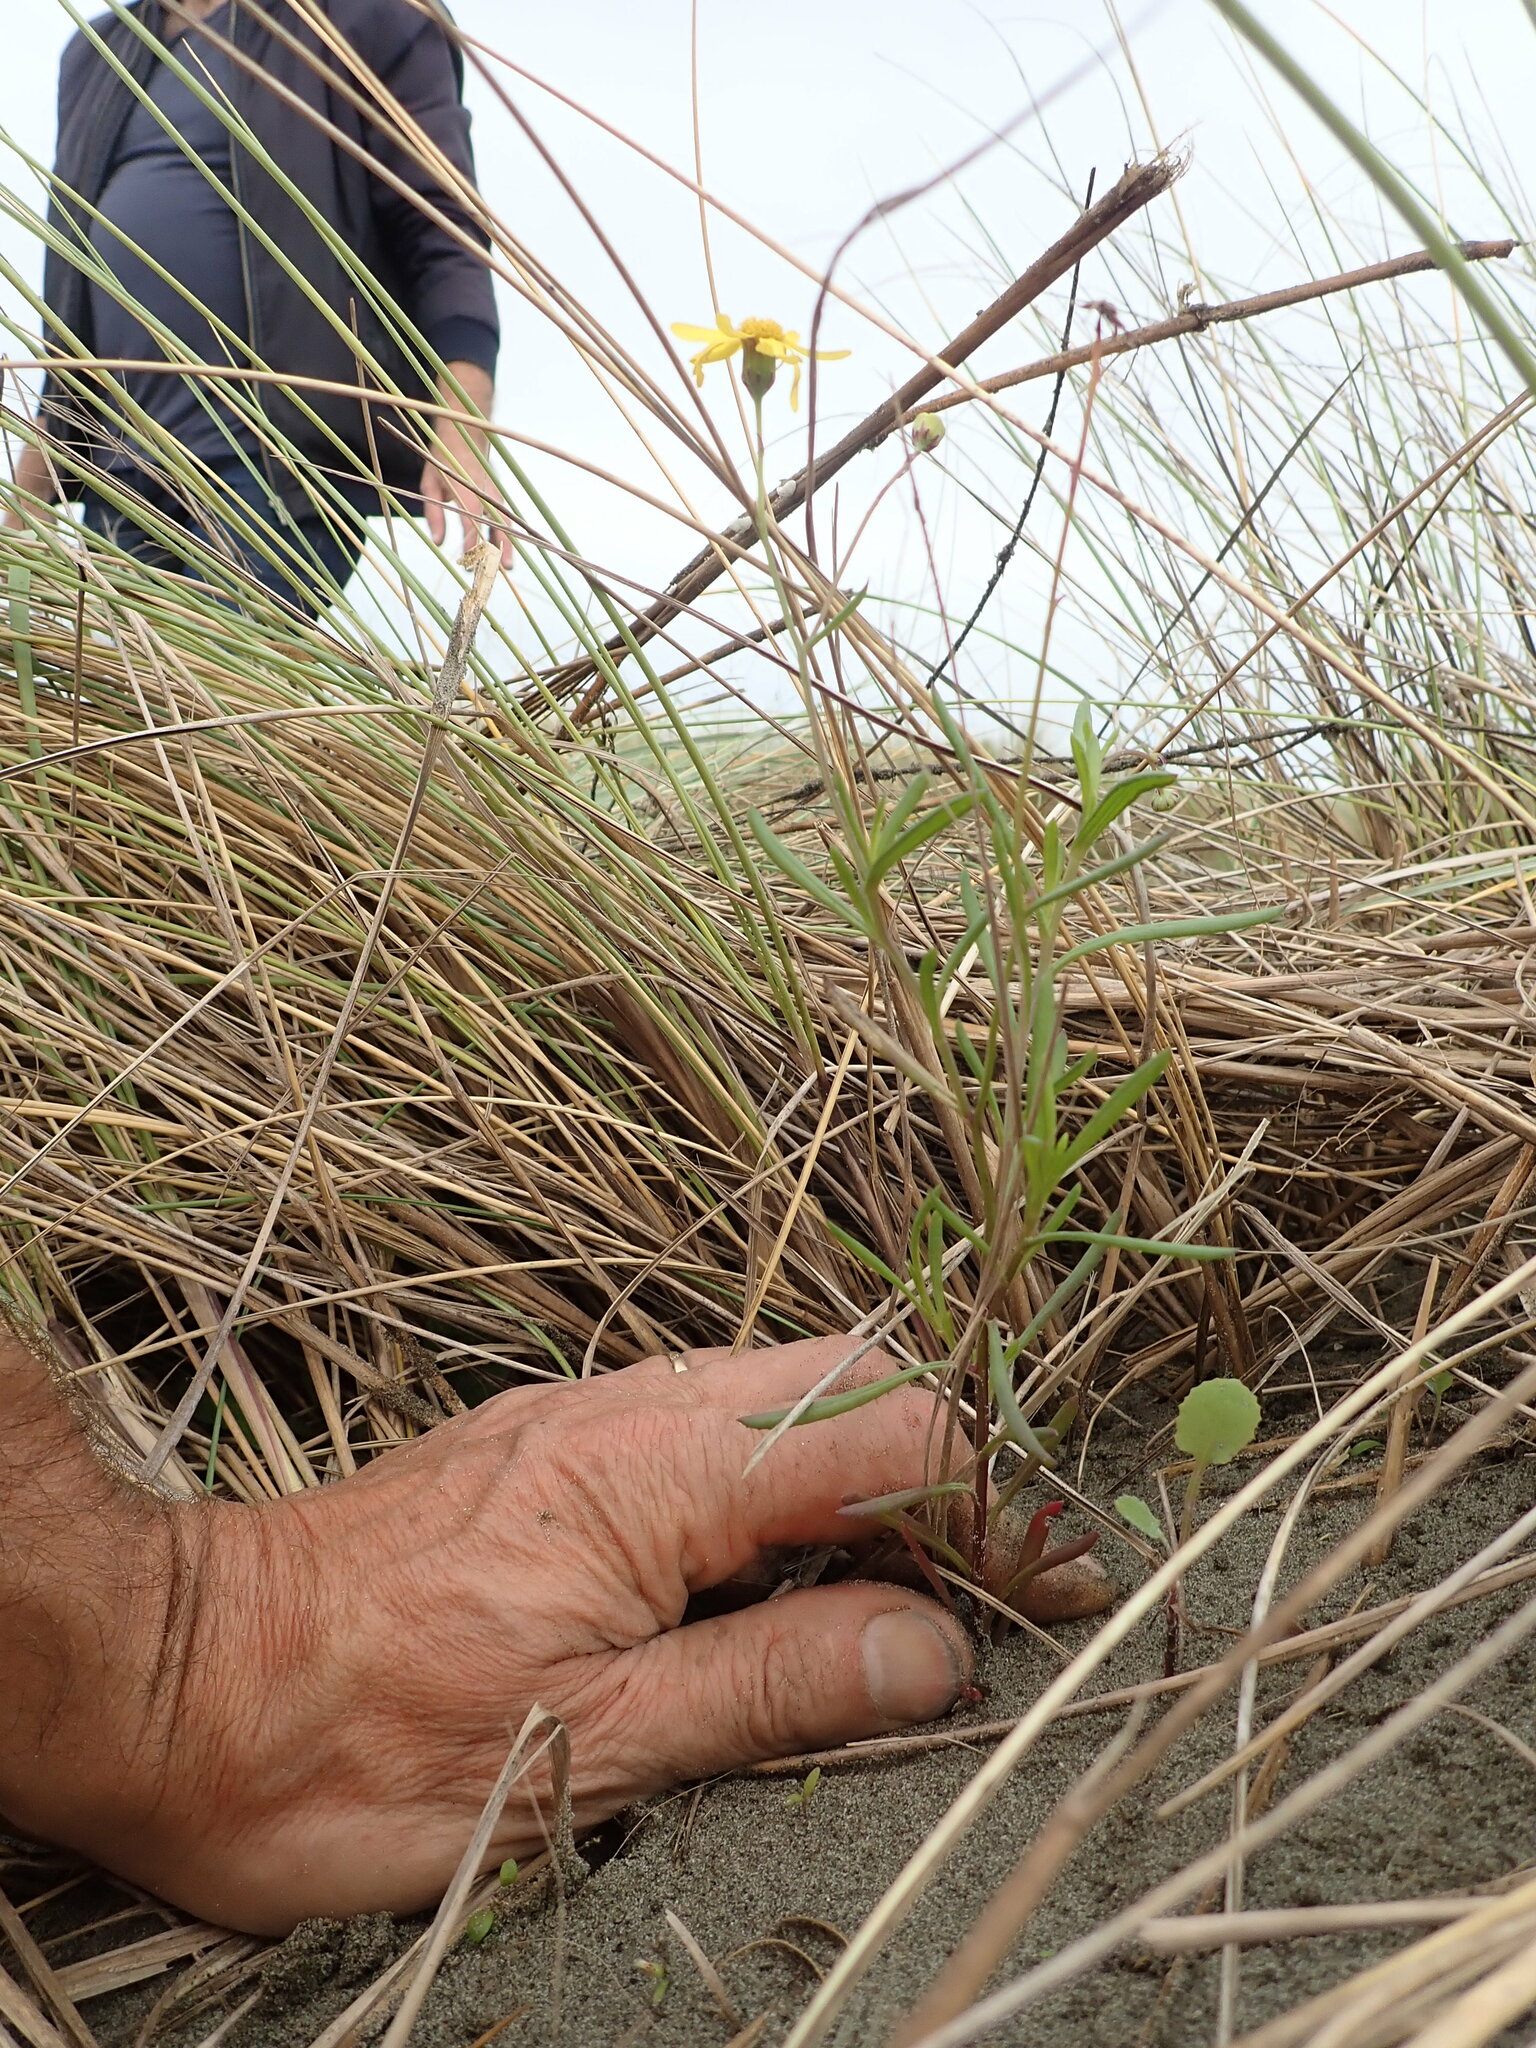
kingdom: Plantae
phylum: Tracheophyta
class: Magnoliopsida
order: Asterales
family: Asteraceae
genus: Senecio
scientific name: Senecio skirrhodon
